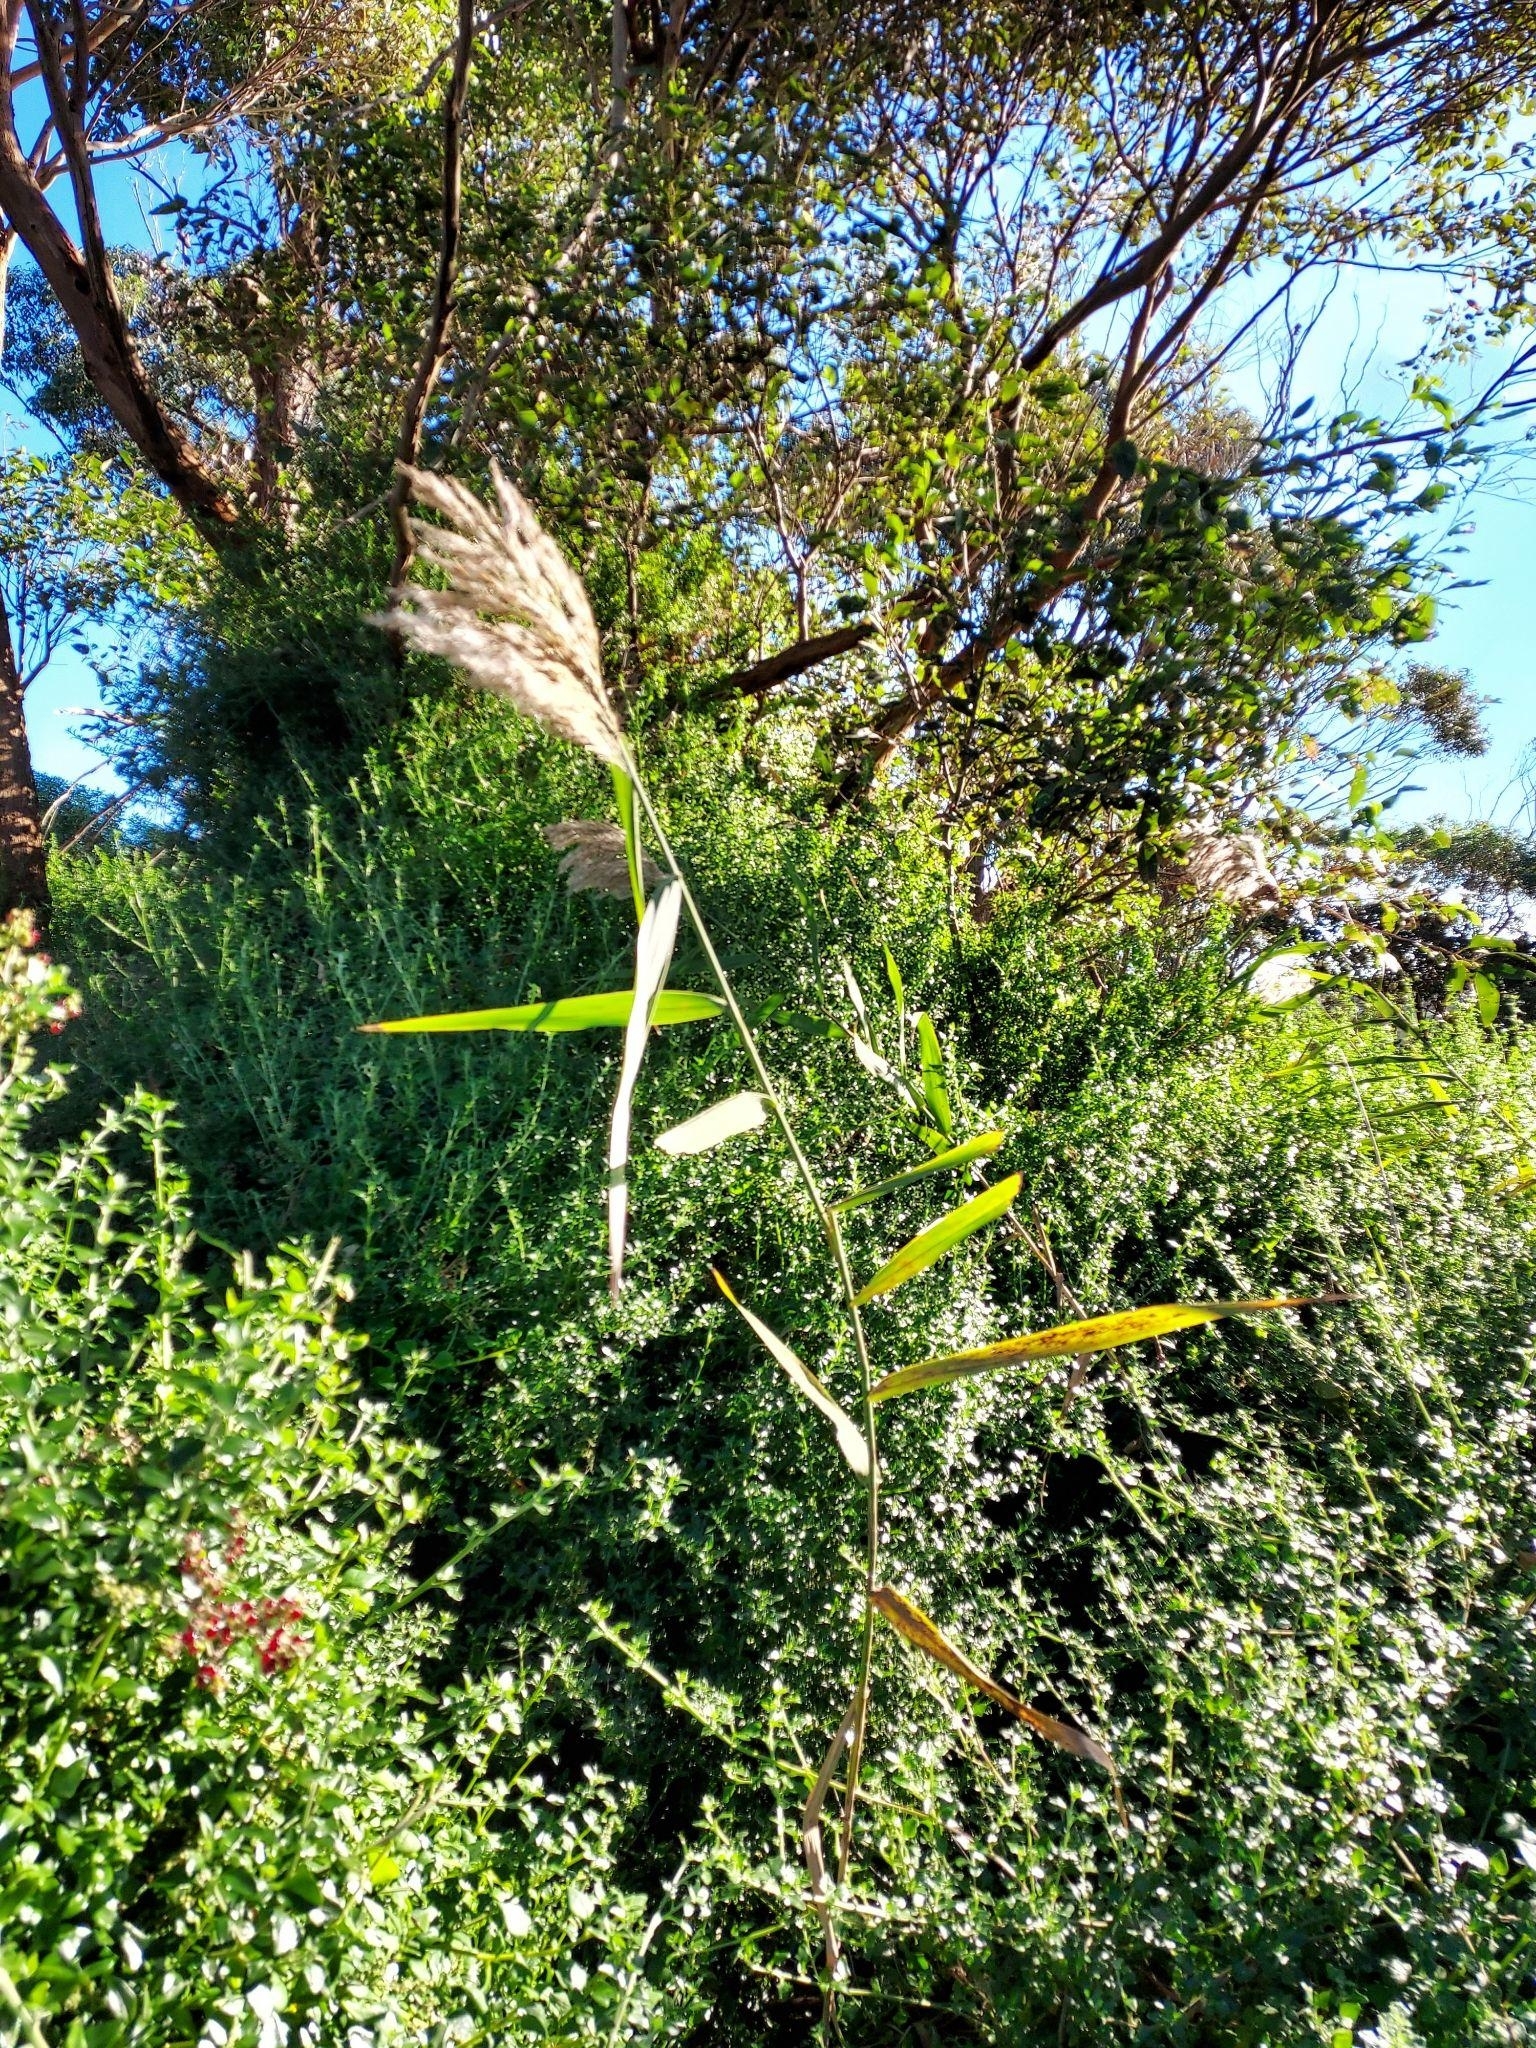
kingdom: Plantae
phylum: Tracheophyta
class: Liliopsida
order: Poales
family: Poaceae
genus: Phragmites
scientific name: Phragmites australis
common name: Common reed
